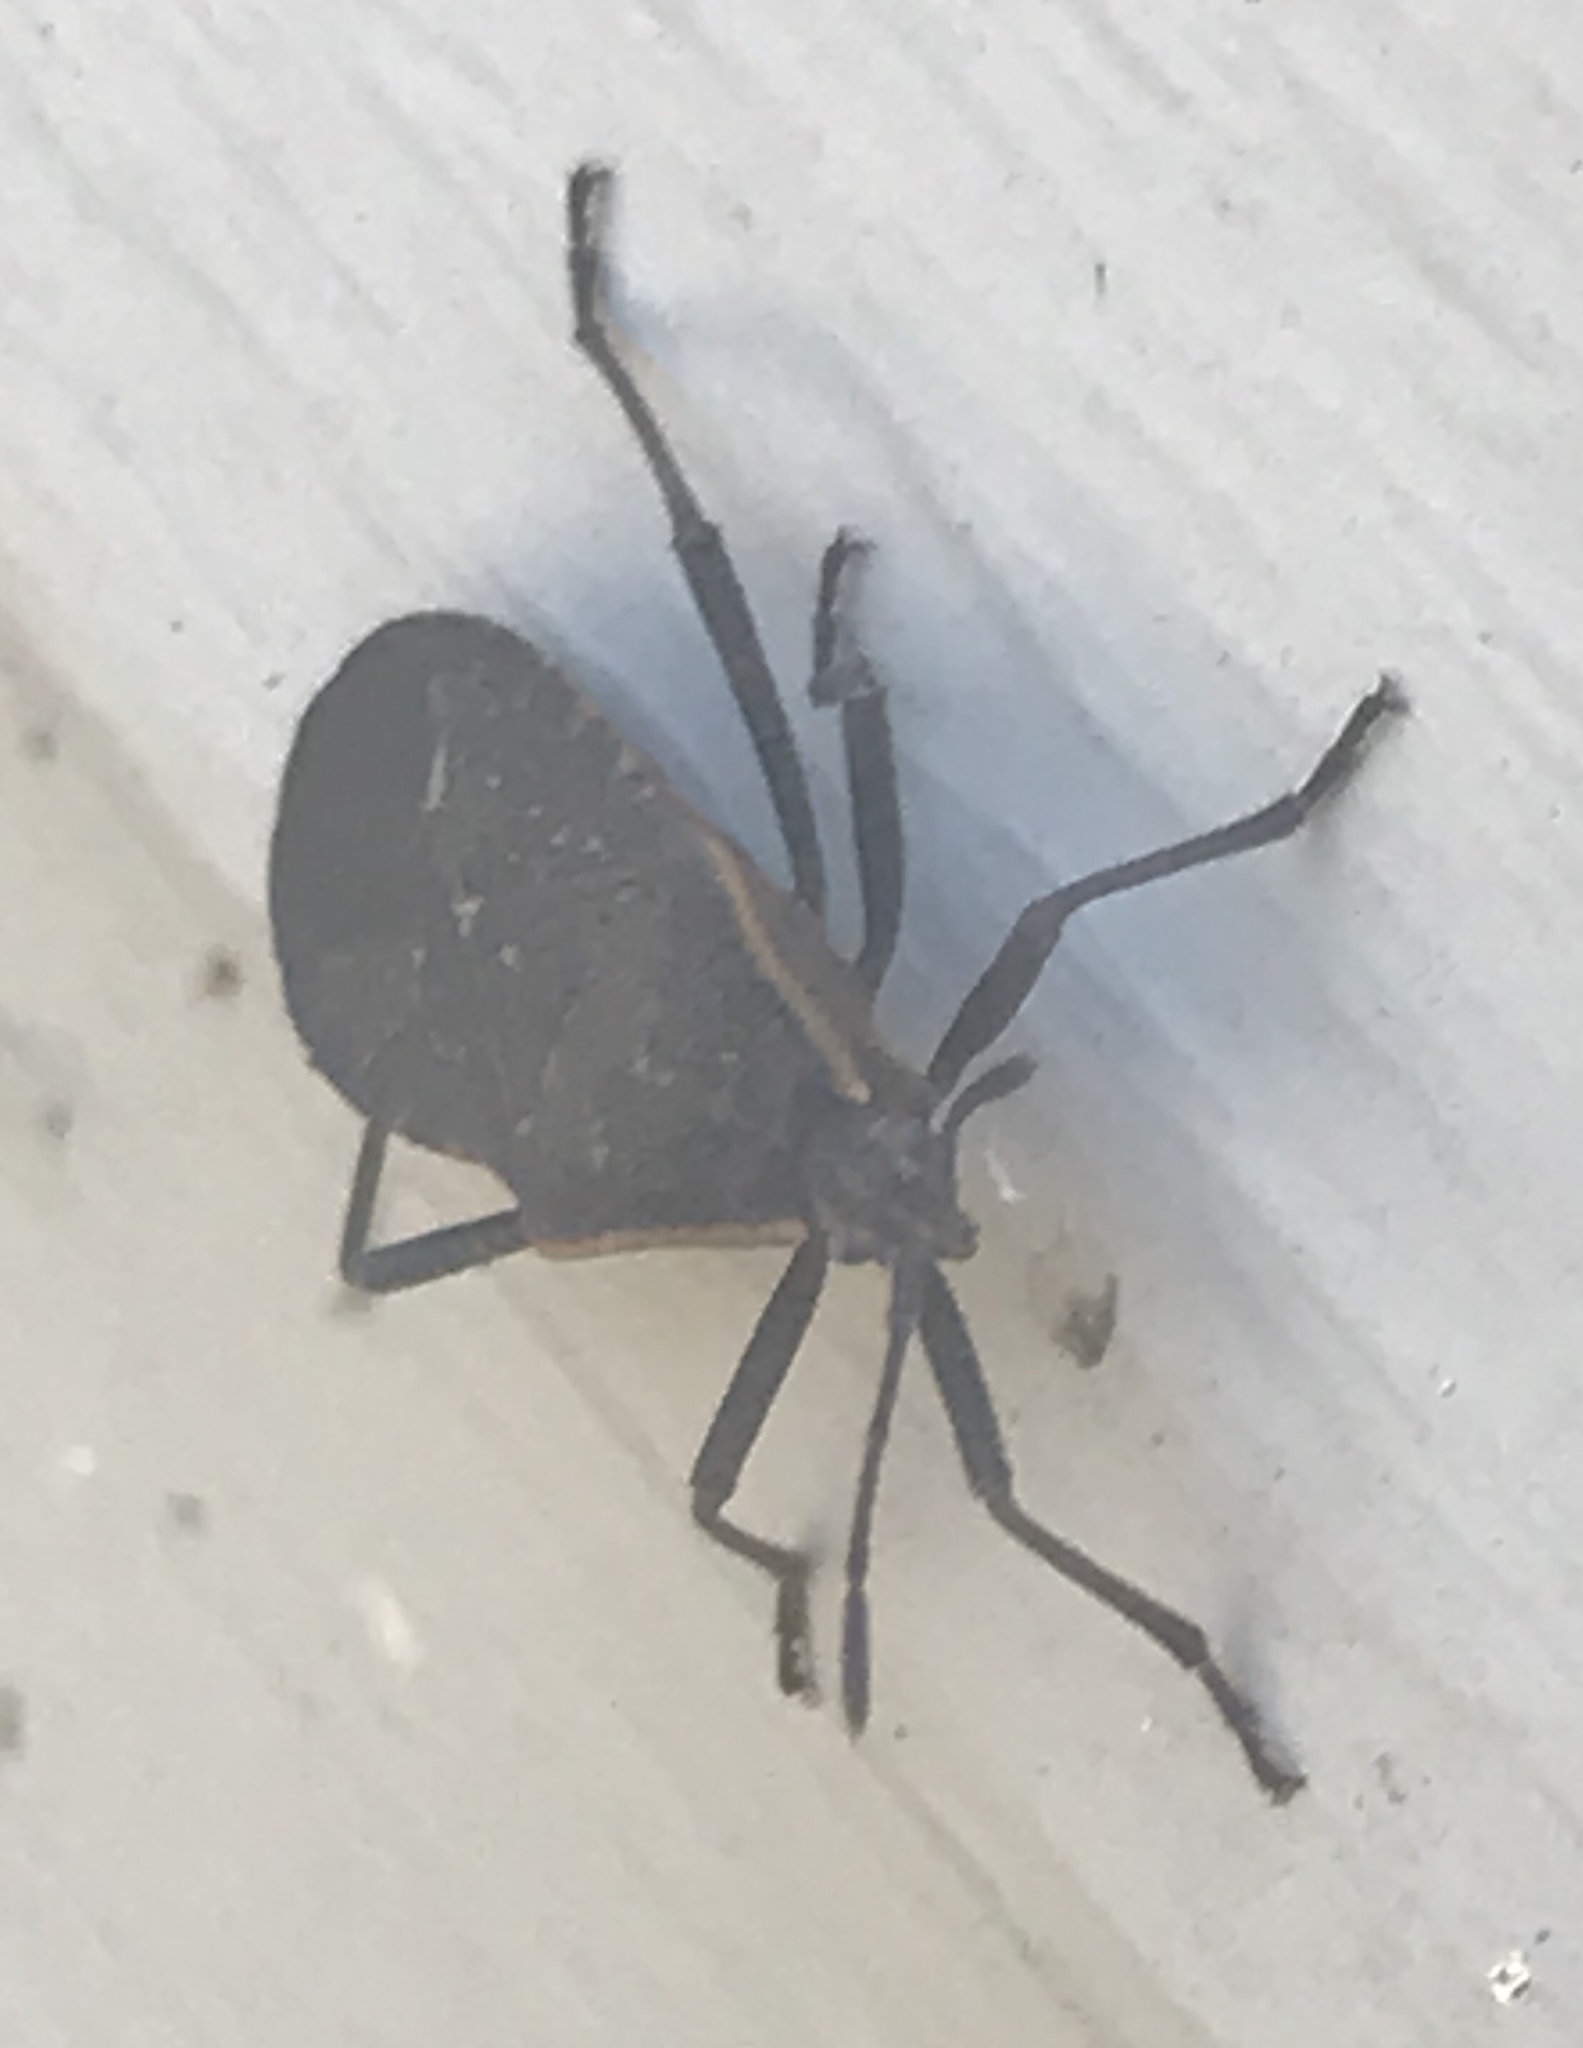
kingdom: Animalia
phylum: Arthropoda
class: Insecta
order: Hemiptera
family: Coreidae
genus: Anasa
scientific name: Anasa tristis
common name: Squash bug
